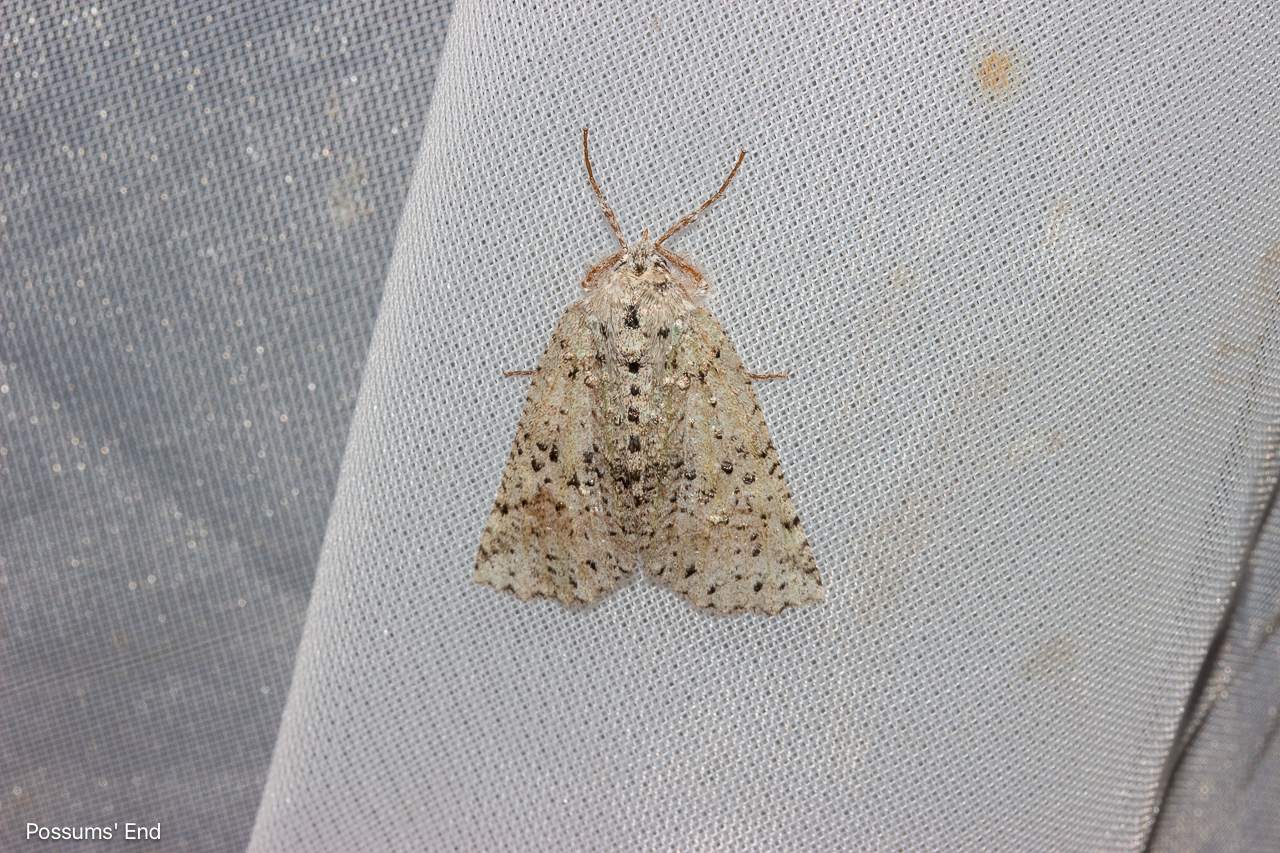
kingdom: Animalia
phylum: Arthropoda
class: Insecta
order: Lepidoptera
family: Geometridae
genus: Declana
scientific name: Declana floccosa
